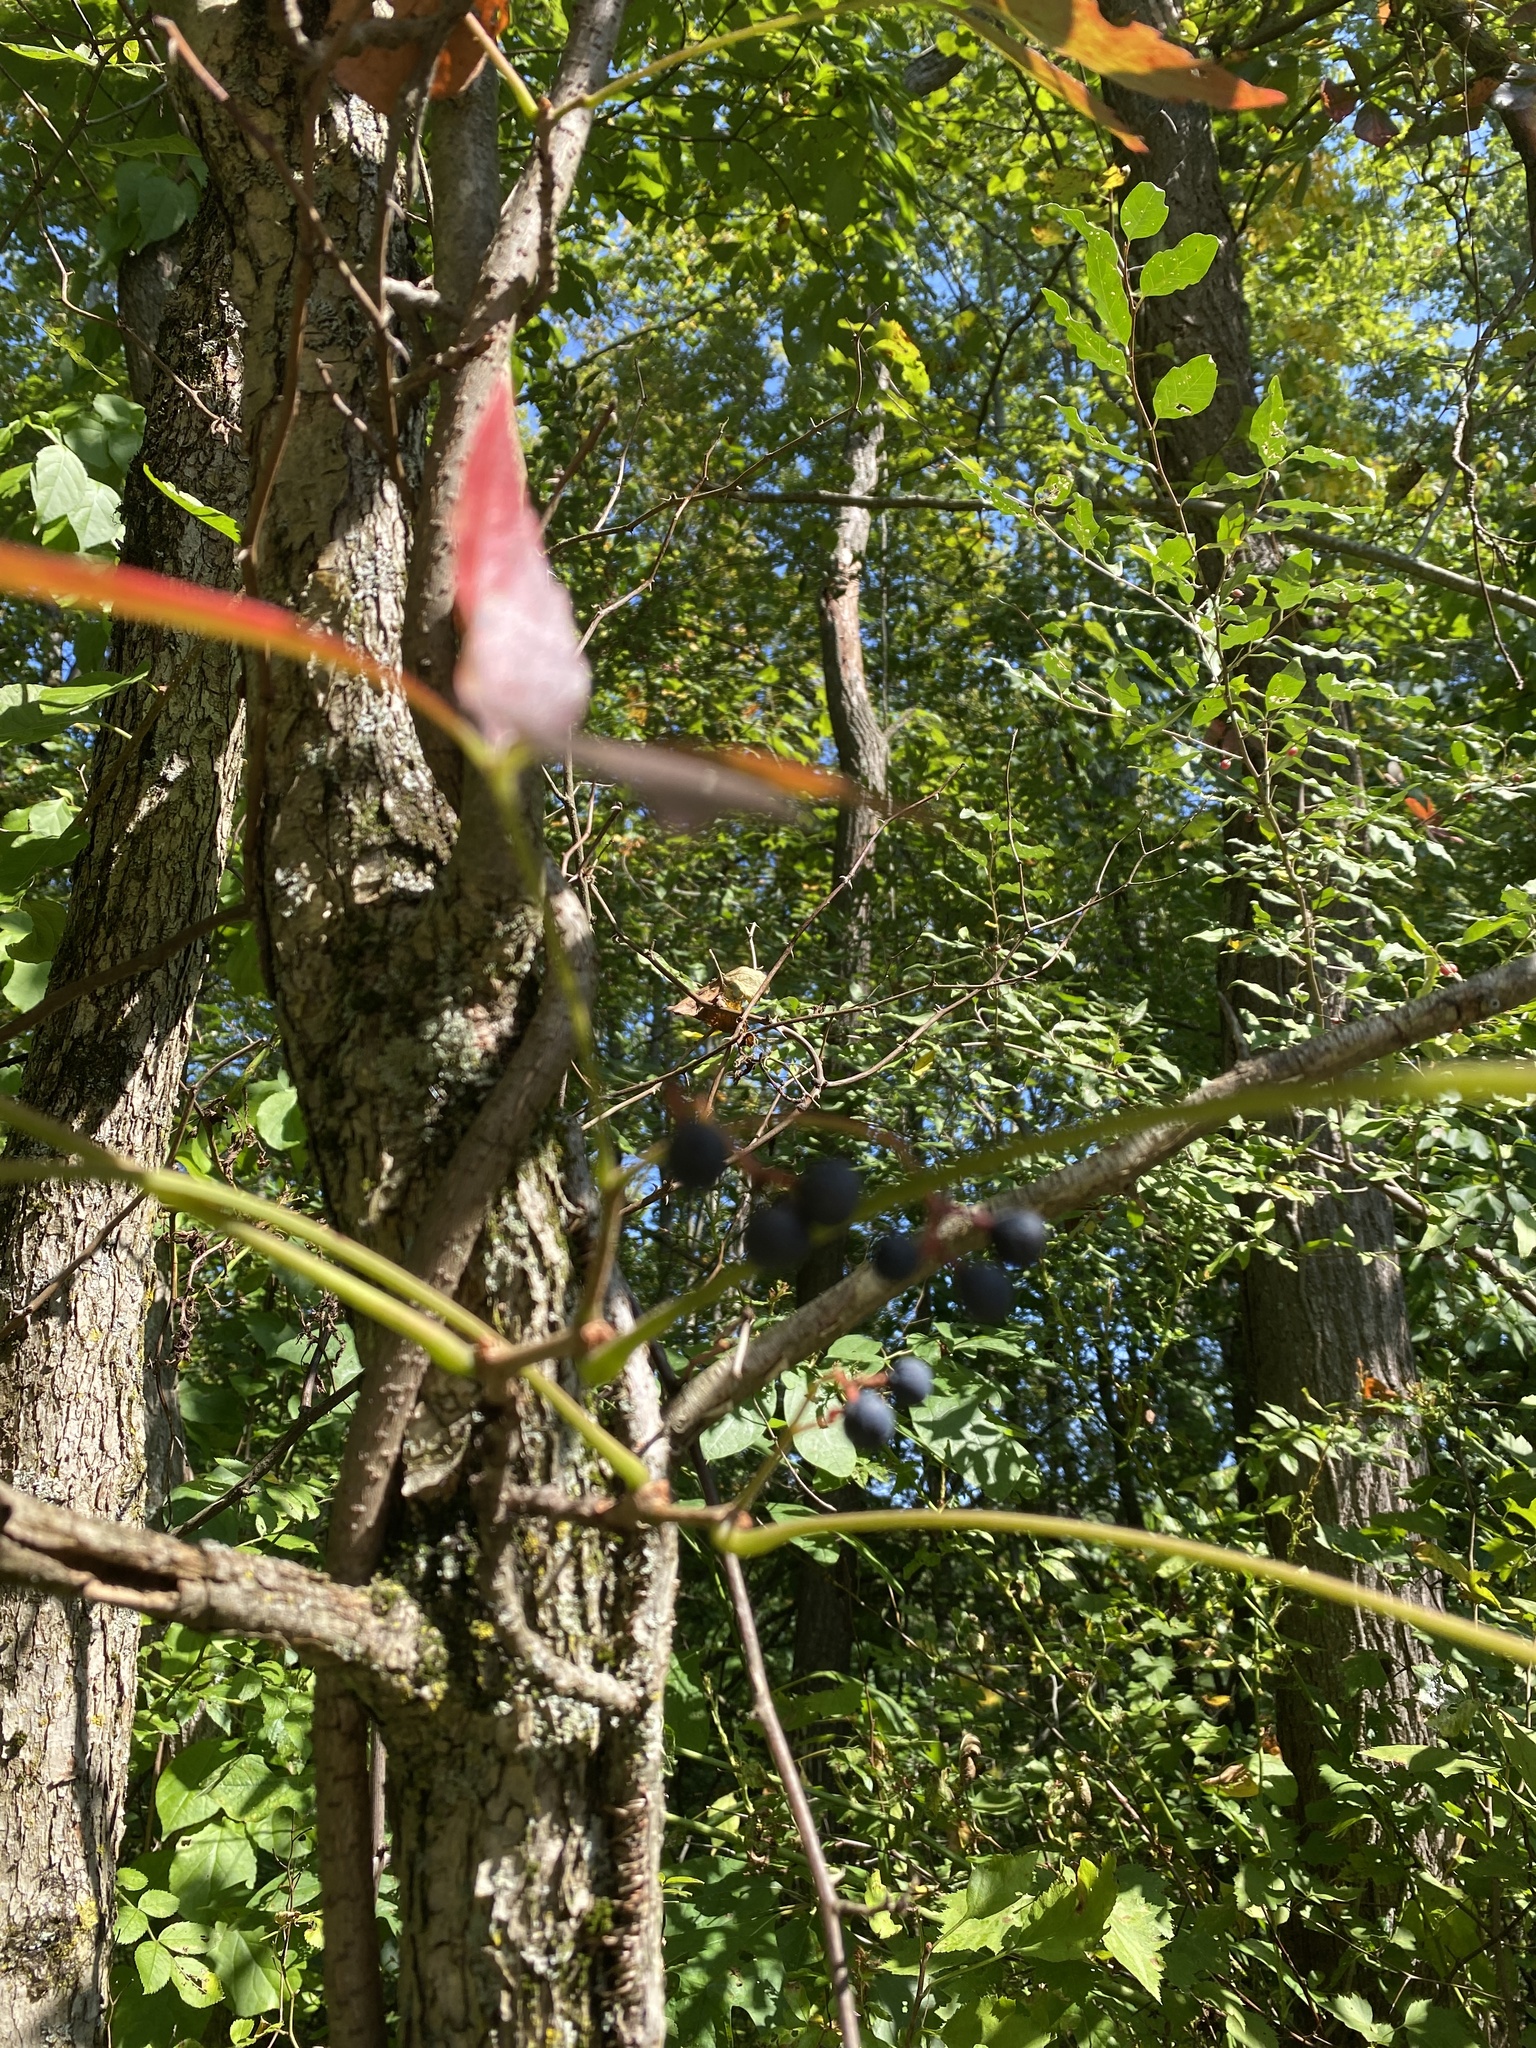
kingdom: Plantae
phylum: Tracheophyta
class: Magnoliopsida
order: Vitales
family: Vitaceae
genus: Parthenocissus
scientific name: Parthenocissus quinquefolia
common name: Virginia-creeper
